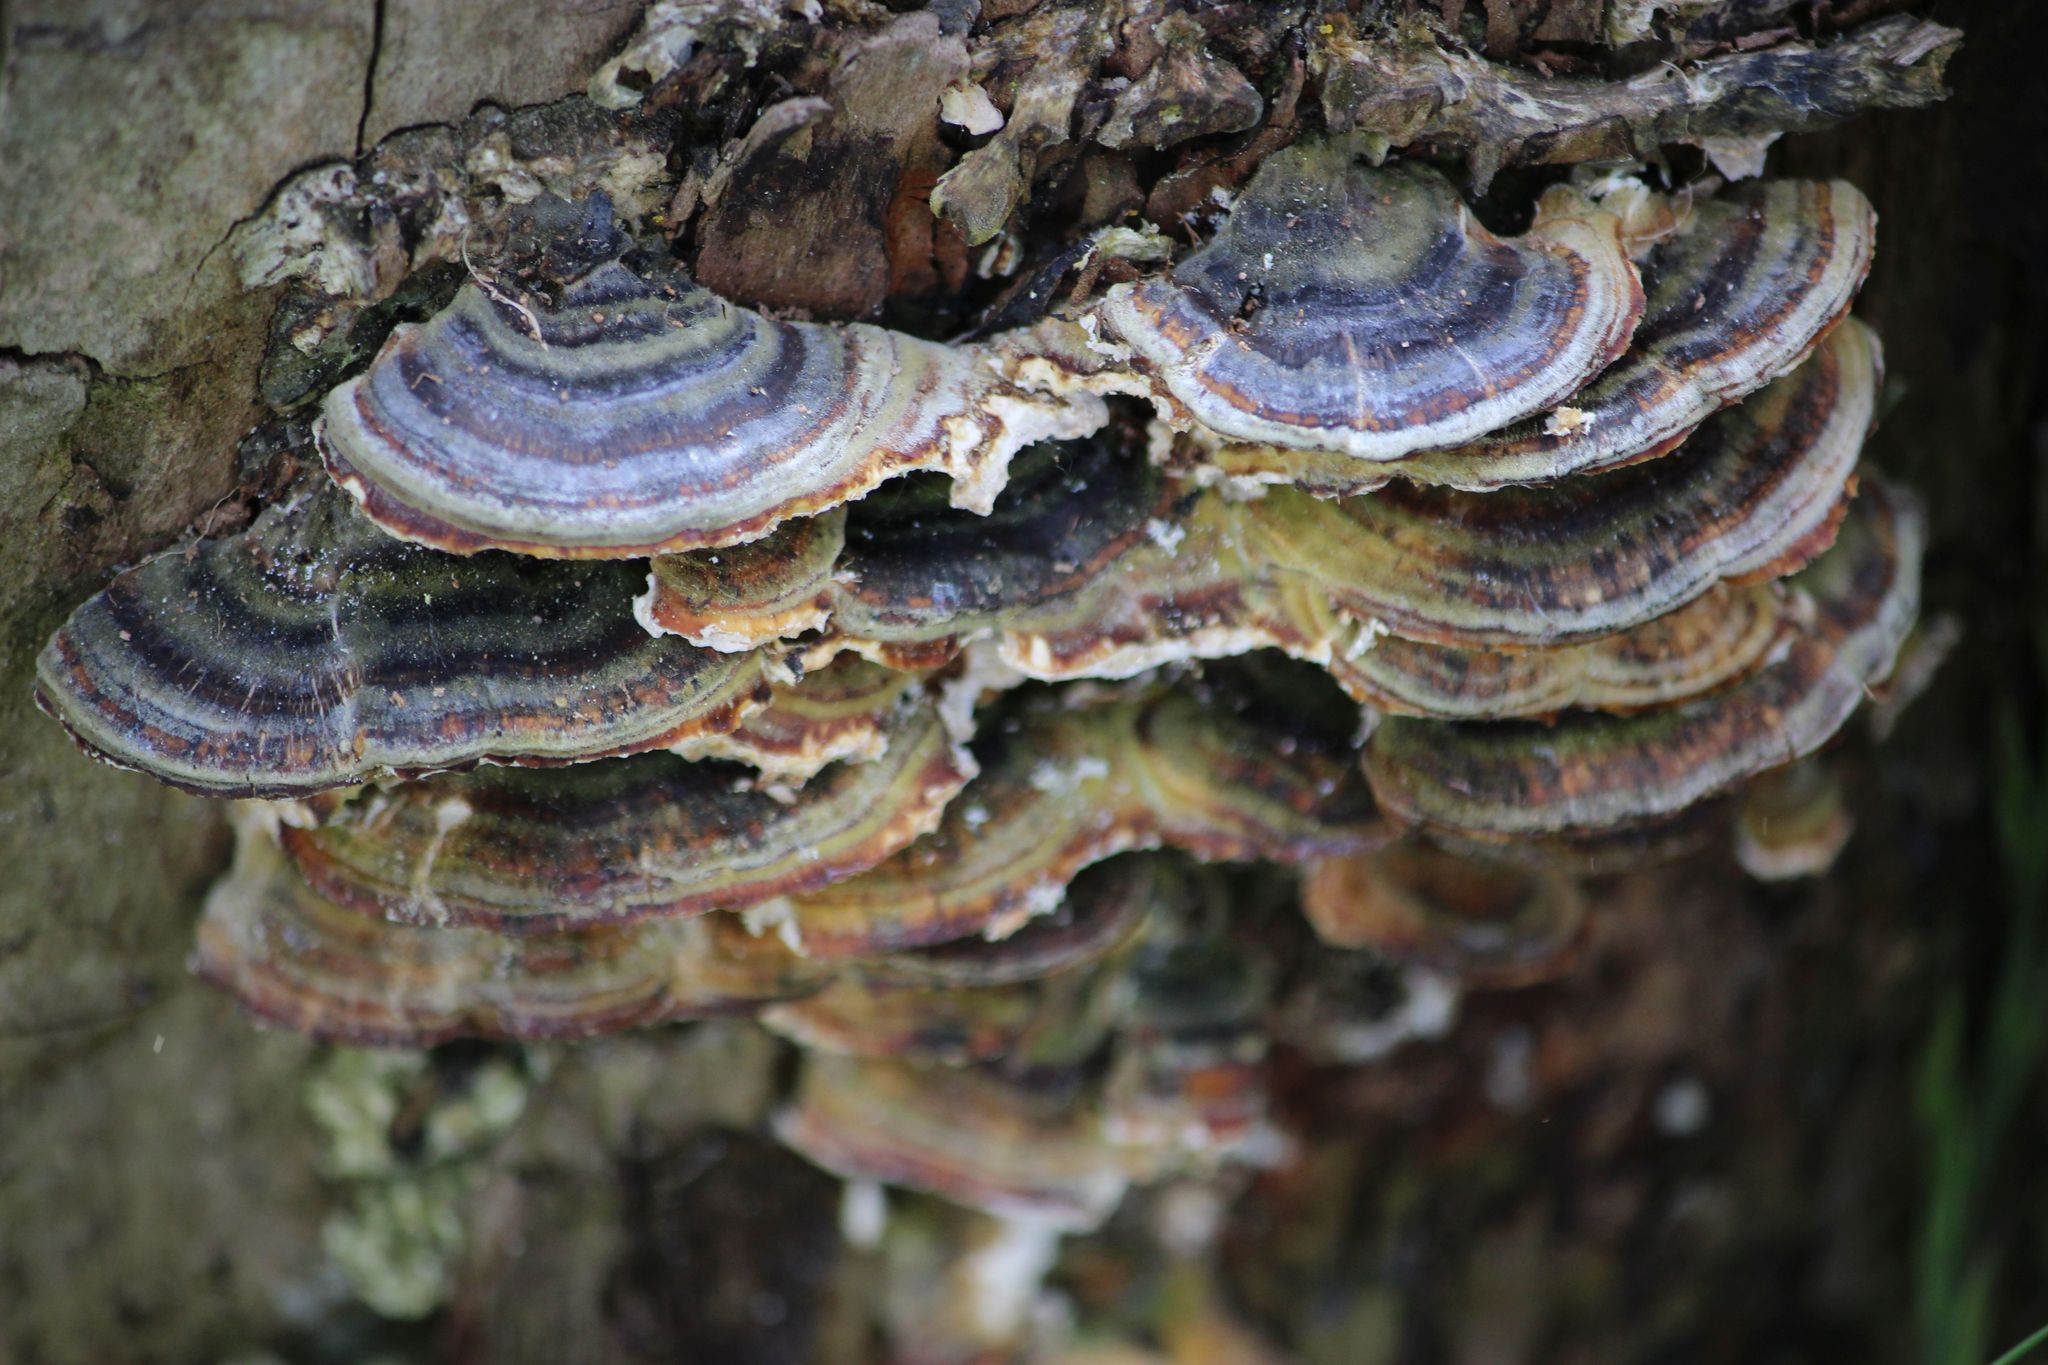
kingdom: Fungi
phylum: Basidiomycota
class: Agaricomycetes
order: Polyporales
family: Polyporaceae
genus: Trametes
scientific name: Trametes versicolor
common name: Turkeytail
